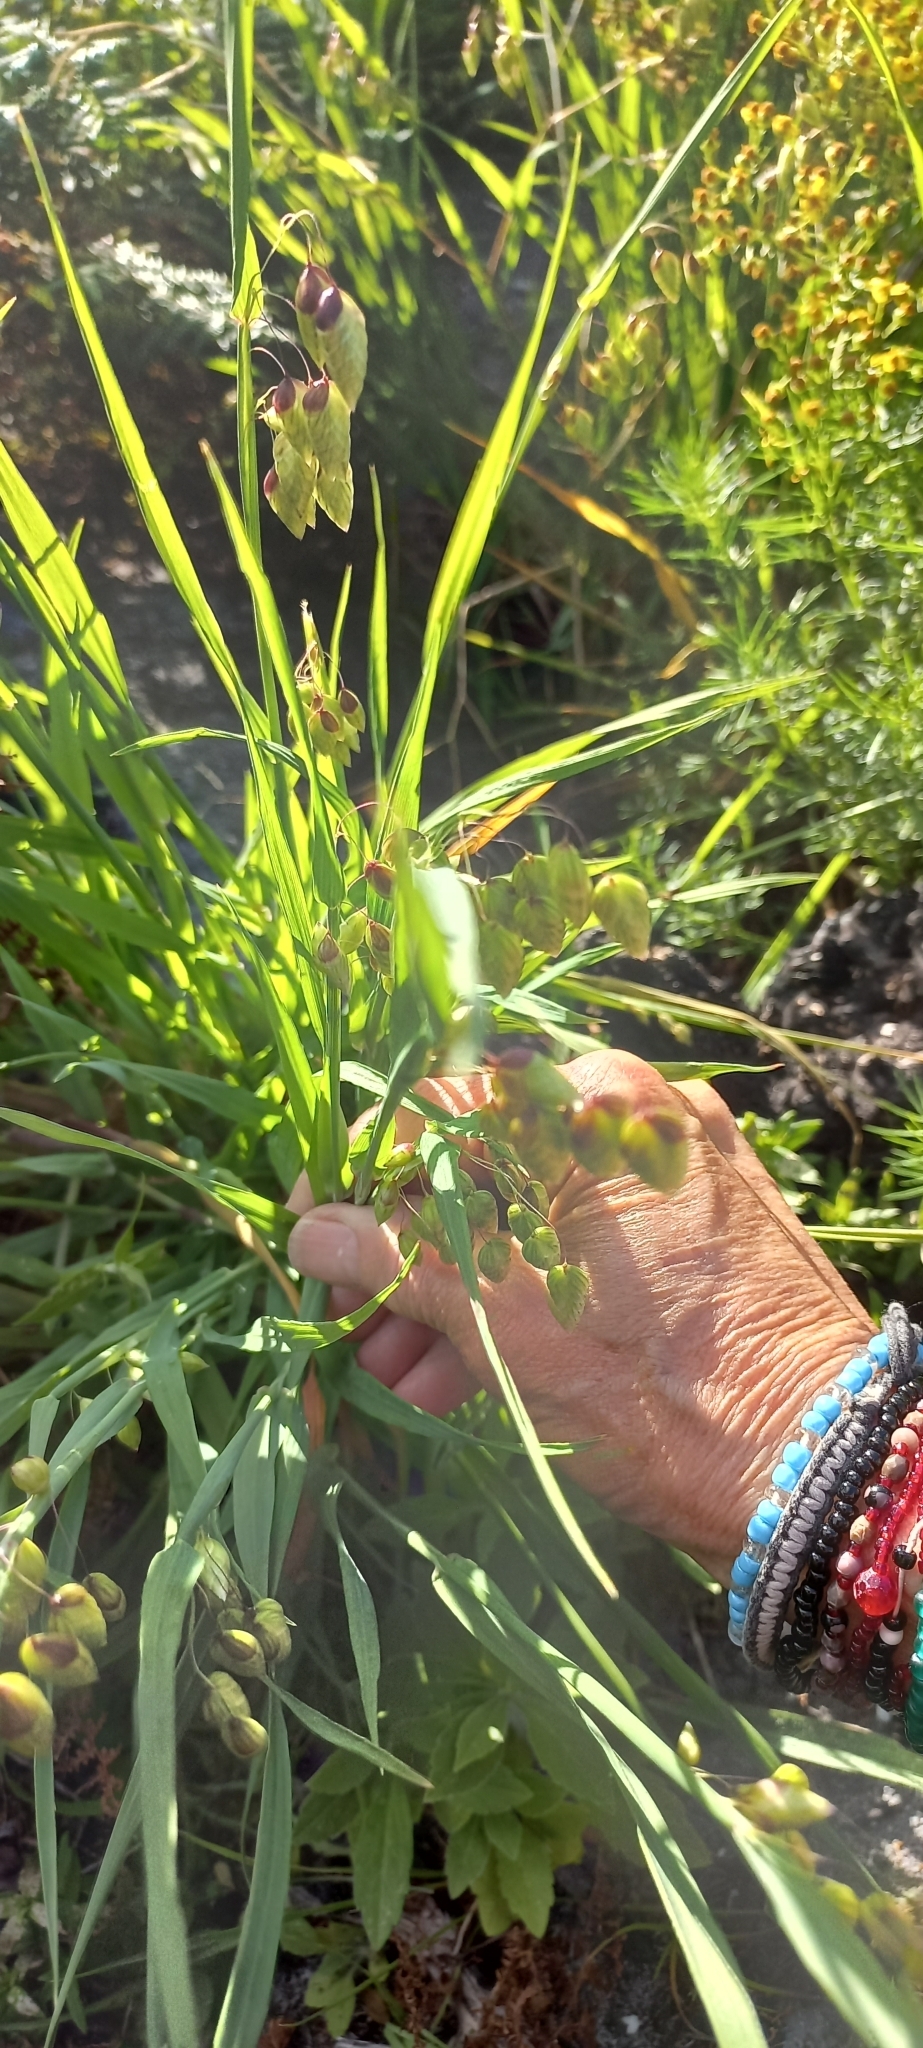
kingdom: Plantae
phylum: Tracheophyta
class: Liliopsida
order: Poales
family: Poaceae
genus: Briza
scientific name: Briza maxima
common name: Big quakinggrass
